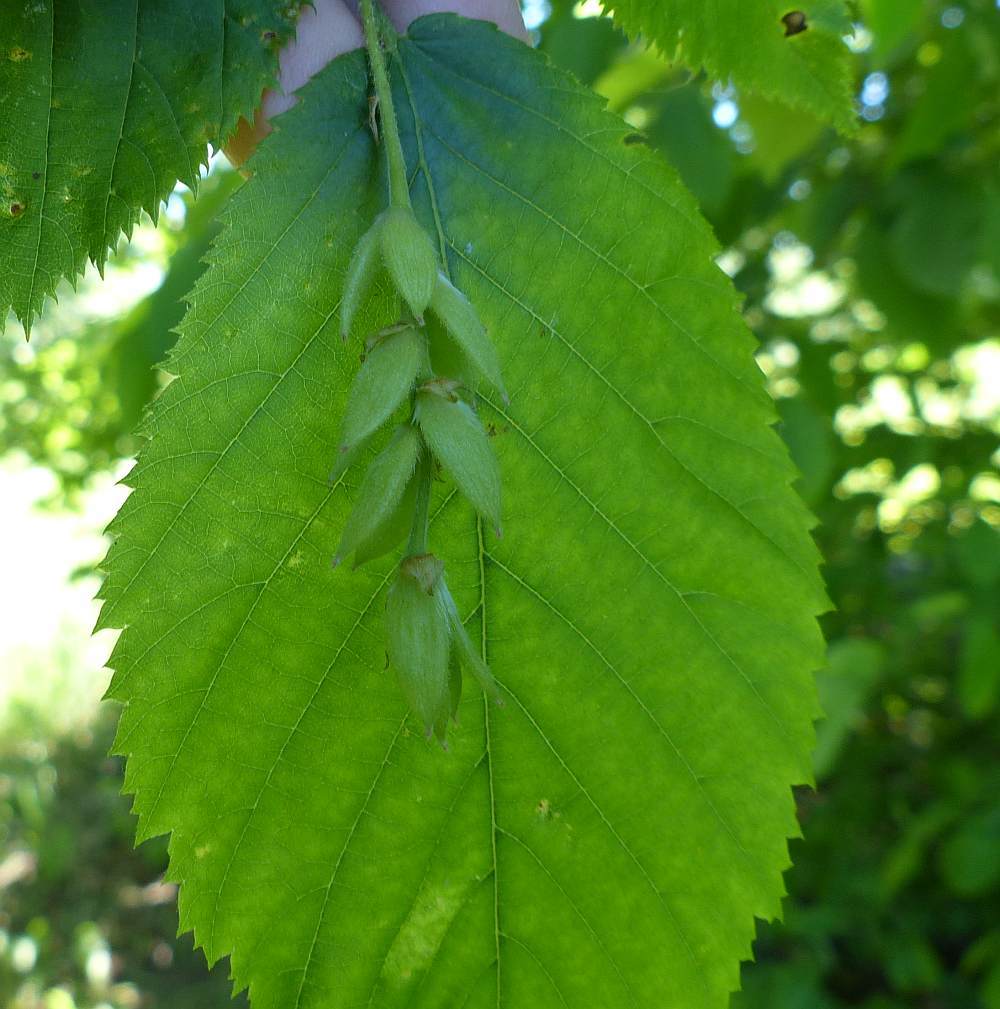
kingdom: Plantae
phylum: Tracheophyta
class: Magnoliopsida
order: Fagales
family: Betulaceae
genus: Ostrya
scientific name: Ostrya virginiana
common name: Ironwood
